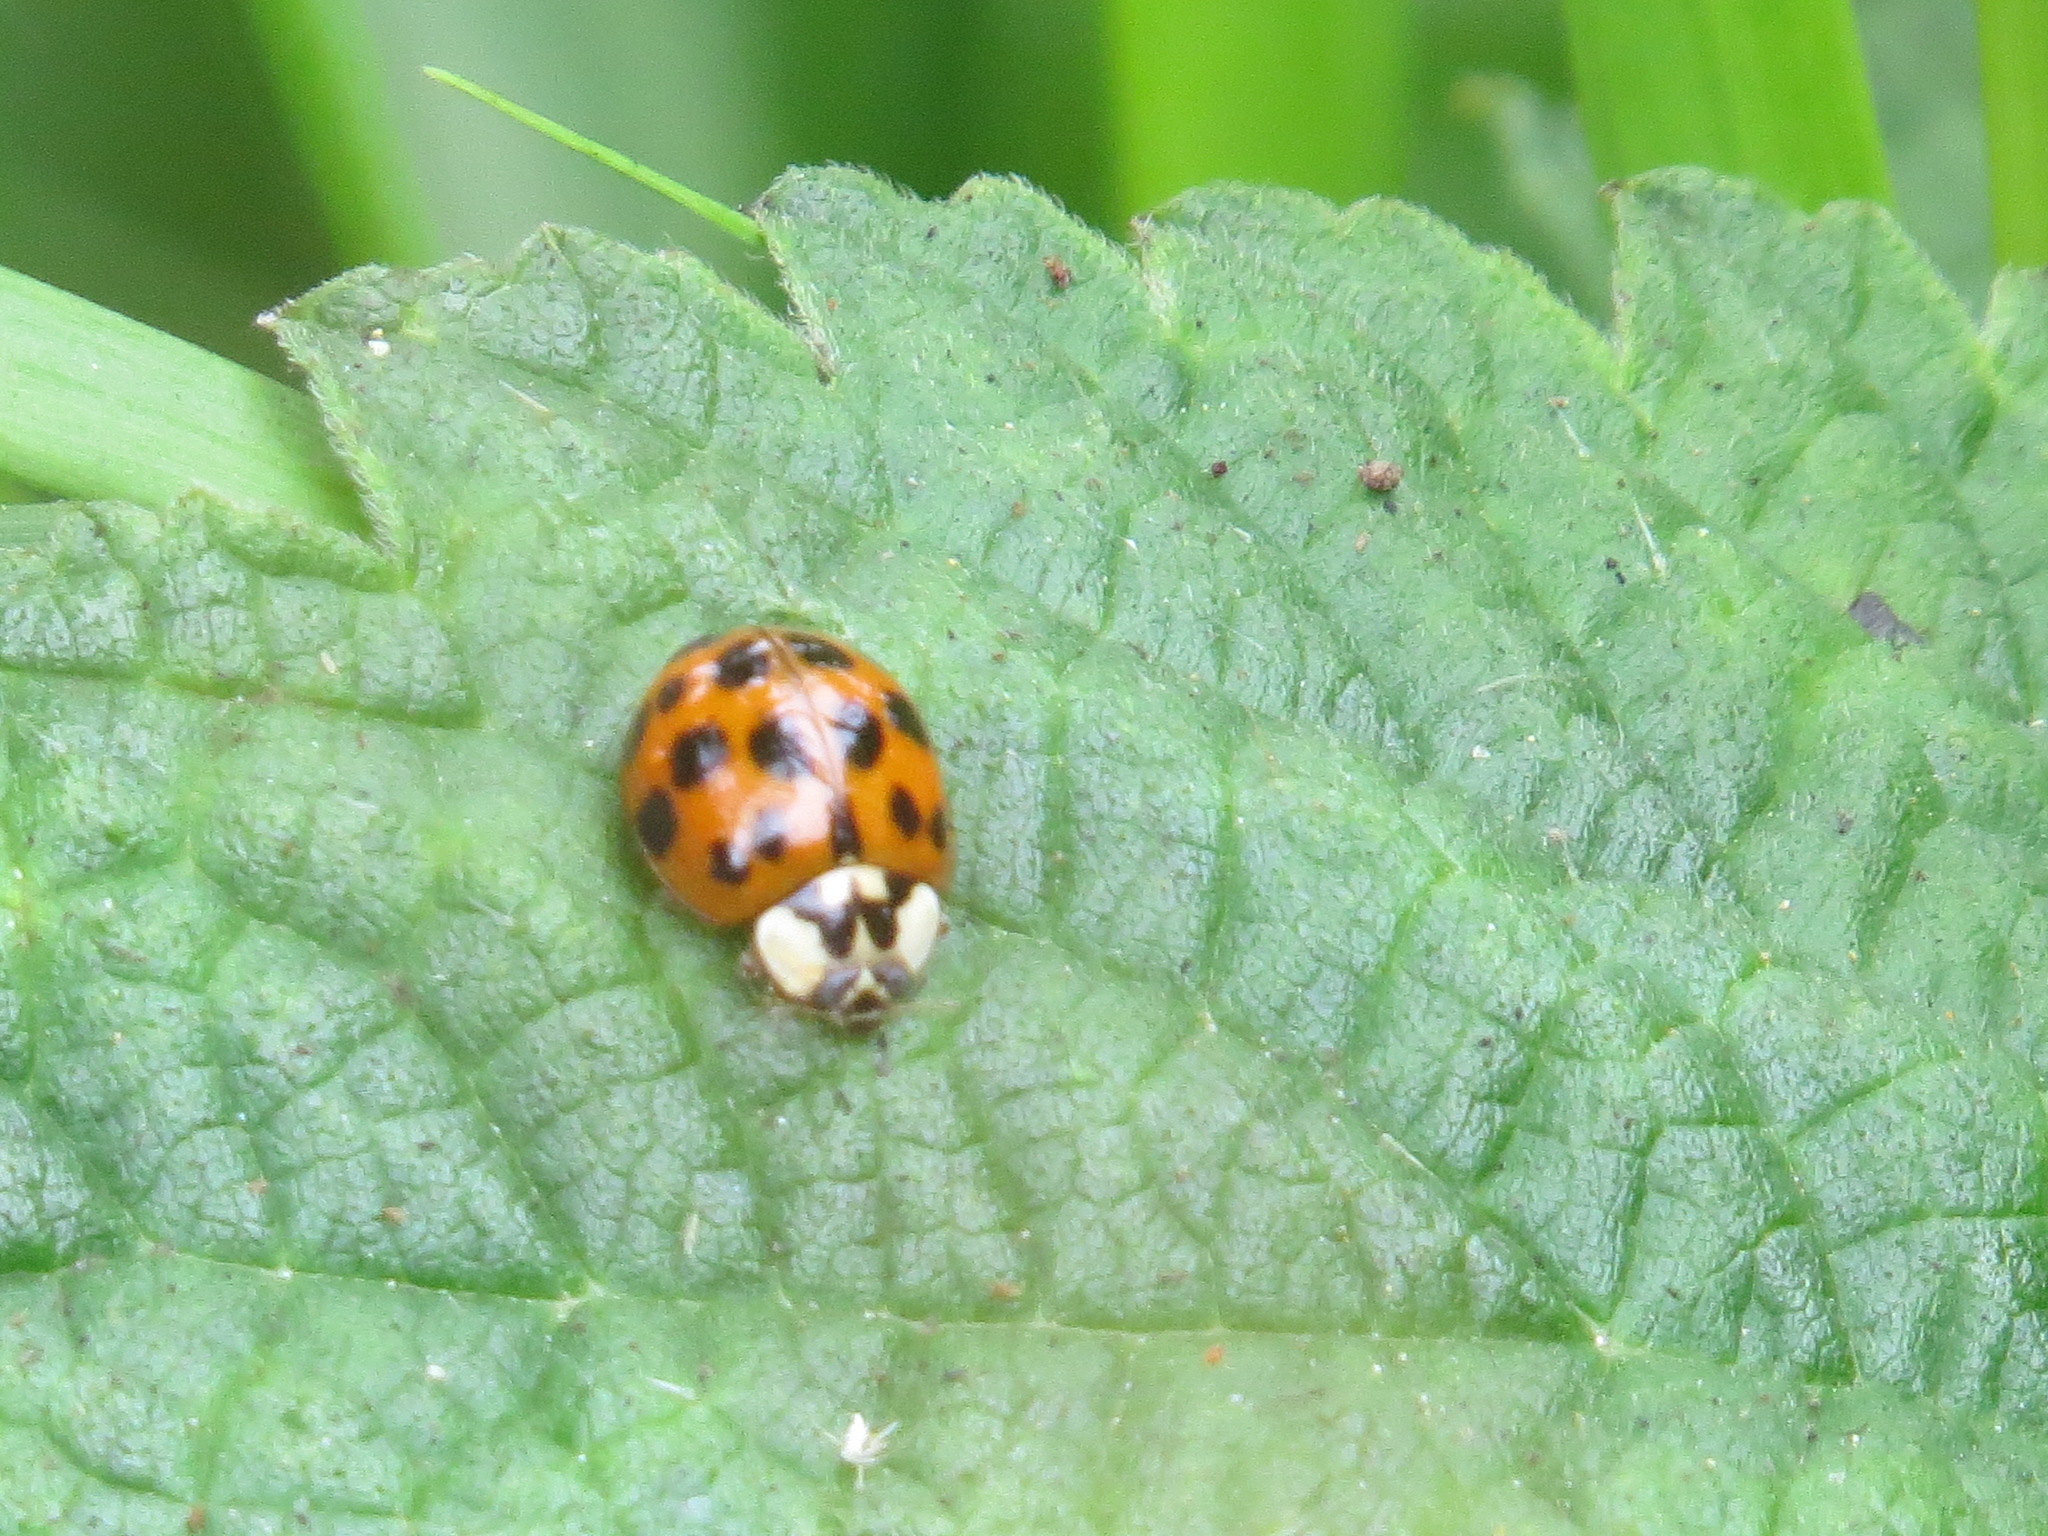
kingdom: Animalia
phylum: Arthropoda
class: Insecta
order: Coleoptera
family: Coccinellidae
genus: Harmonia
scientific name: Harmonia axyridis
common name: Harlequin ladybird
